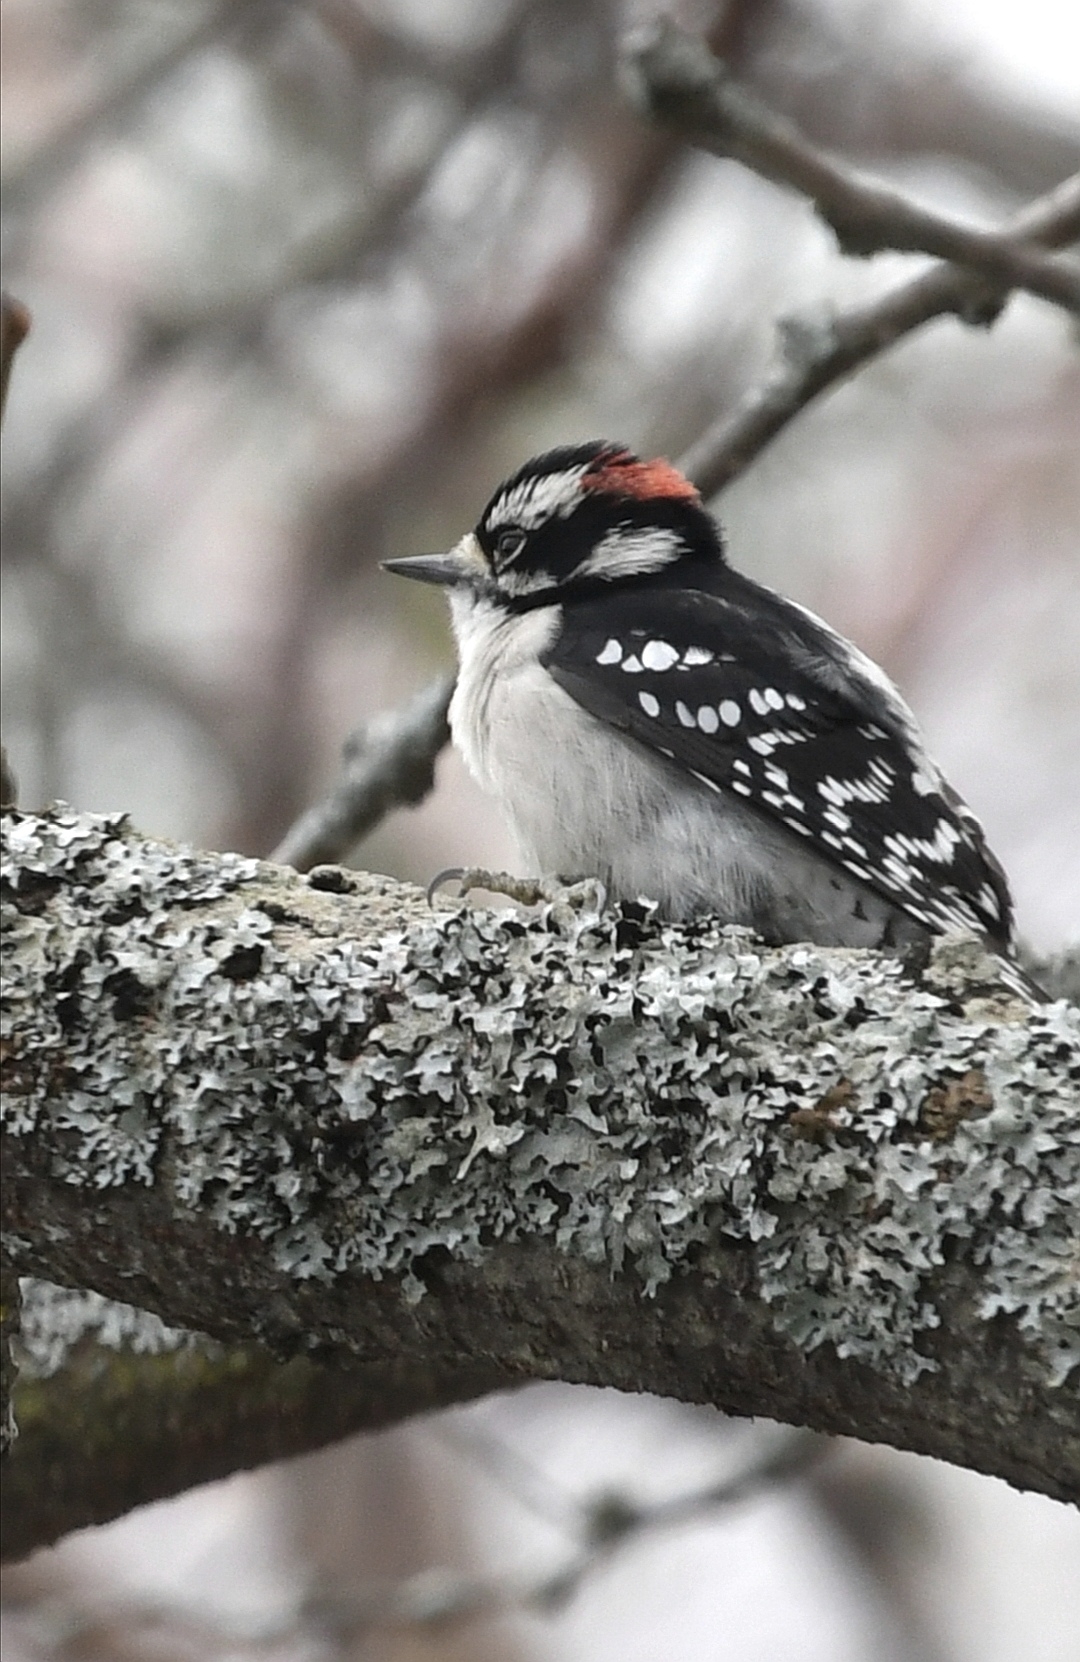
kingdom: Animalia
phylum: Chordata
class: Aves
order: Piciformes
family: Picidae
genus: Dryobates
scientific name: Dryobates pubescens
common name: Downy woodpecker
